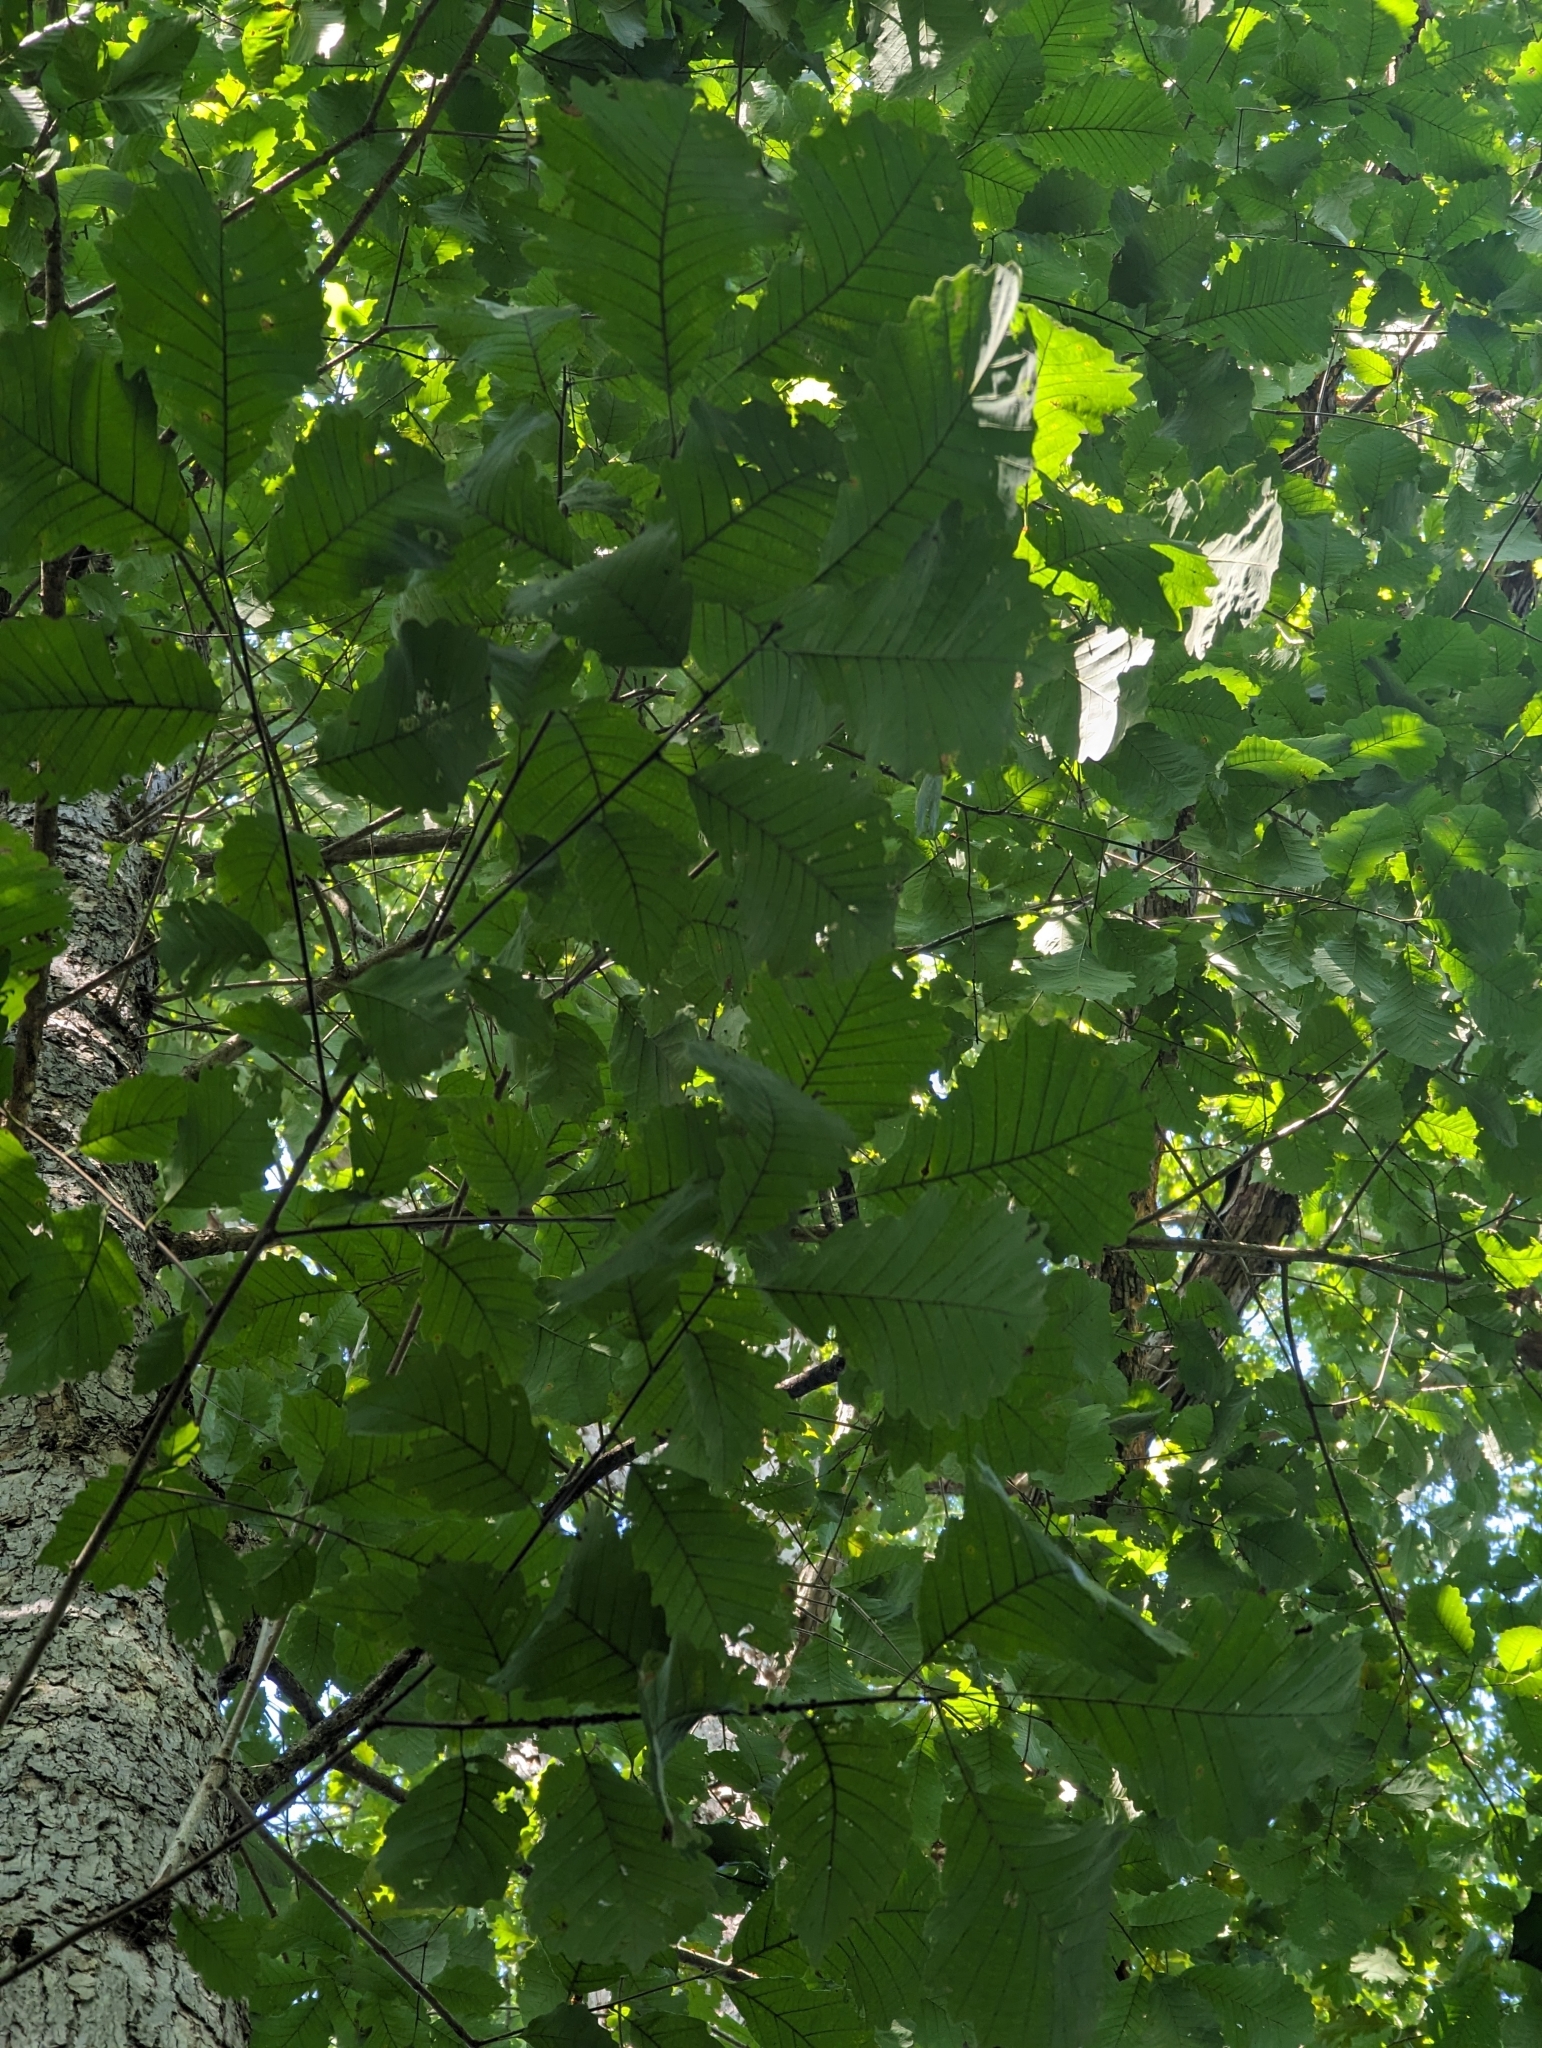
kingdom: Plantae
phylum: Tracheophyta
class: Magnoliopsida
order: Fagales
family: Fagaceae
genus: Quercus
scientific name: Quercus michauxii
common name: Swamp chestnut oak
